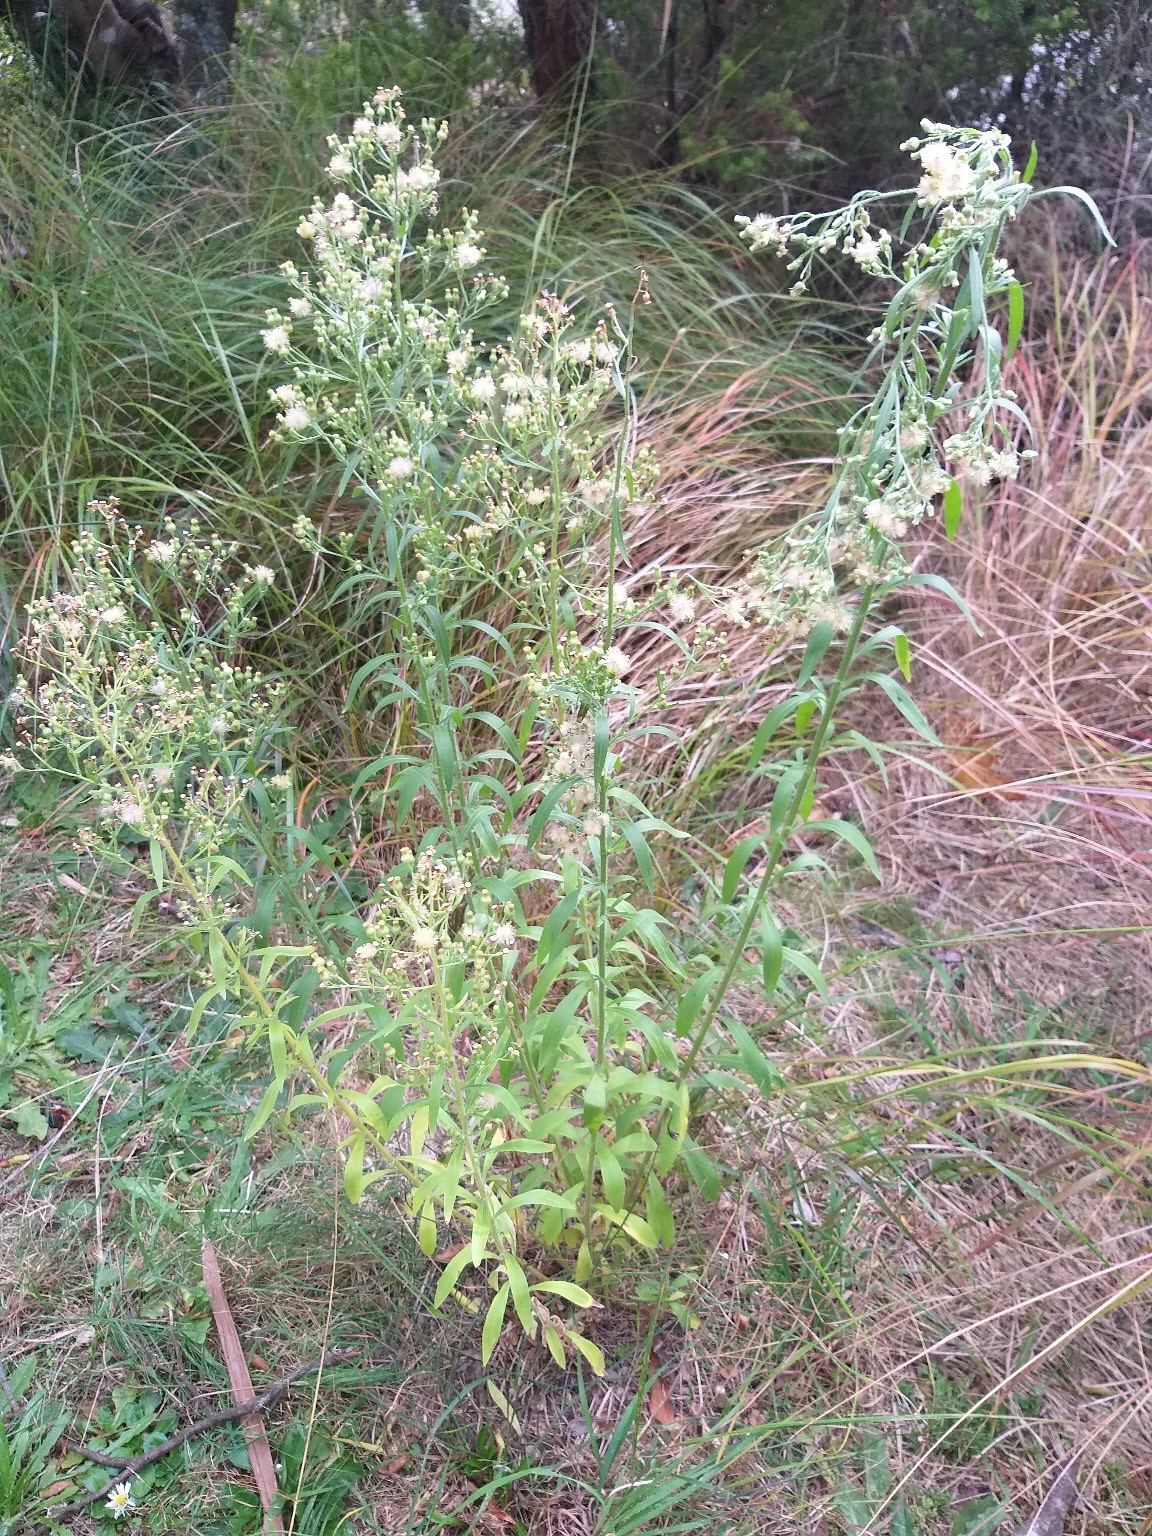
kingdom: Plantae
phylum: Tracheophyta
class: Magnoliopsida
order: Asterales
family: Asteraceae
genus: Erigeron
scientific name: Erigeron sumatrensis
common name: Daisy
